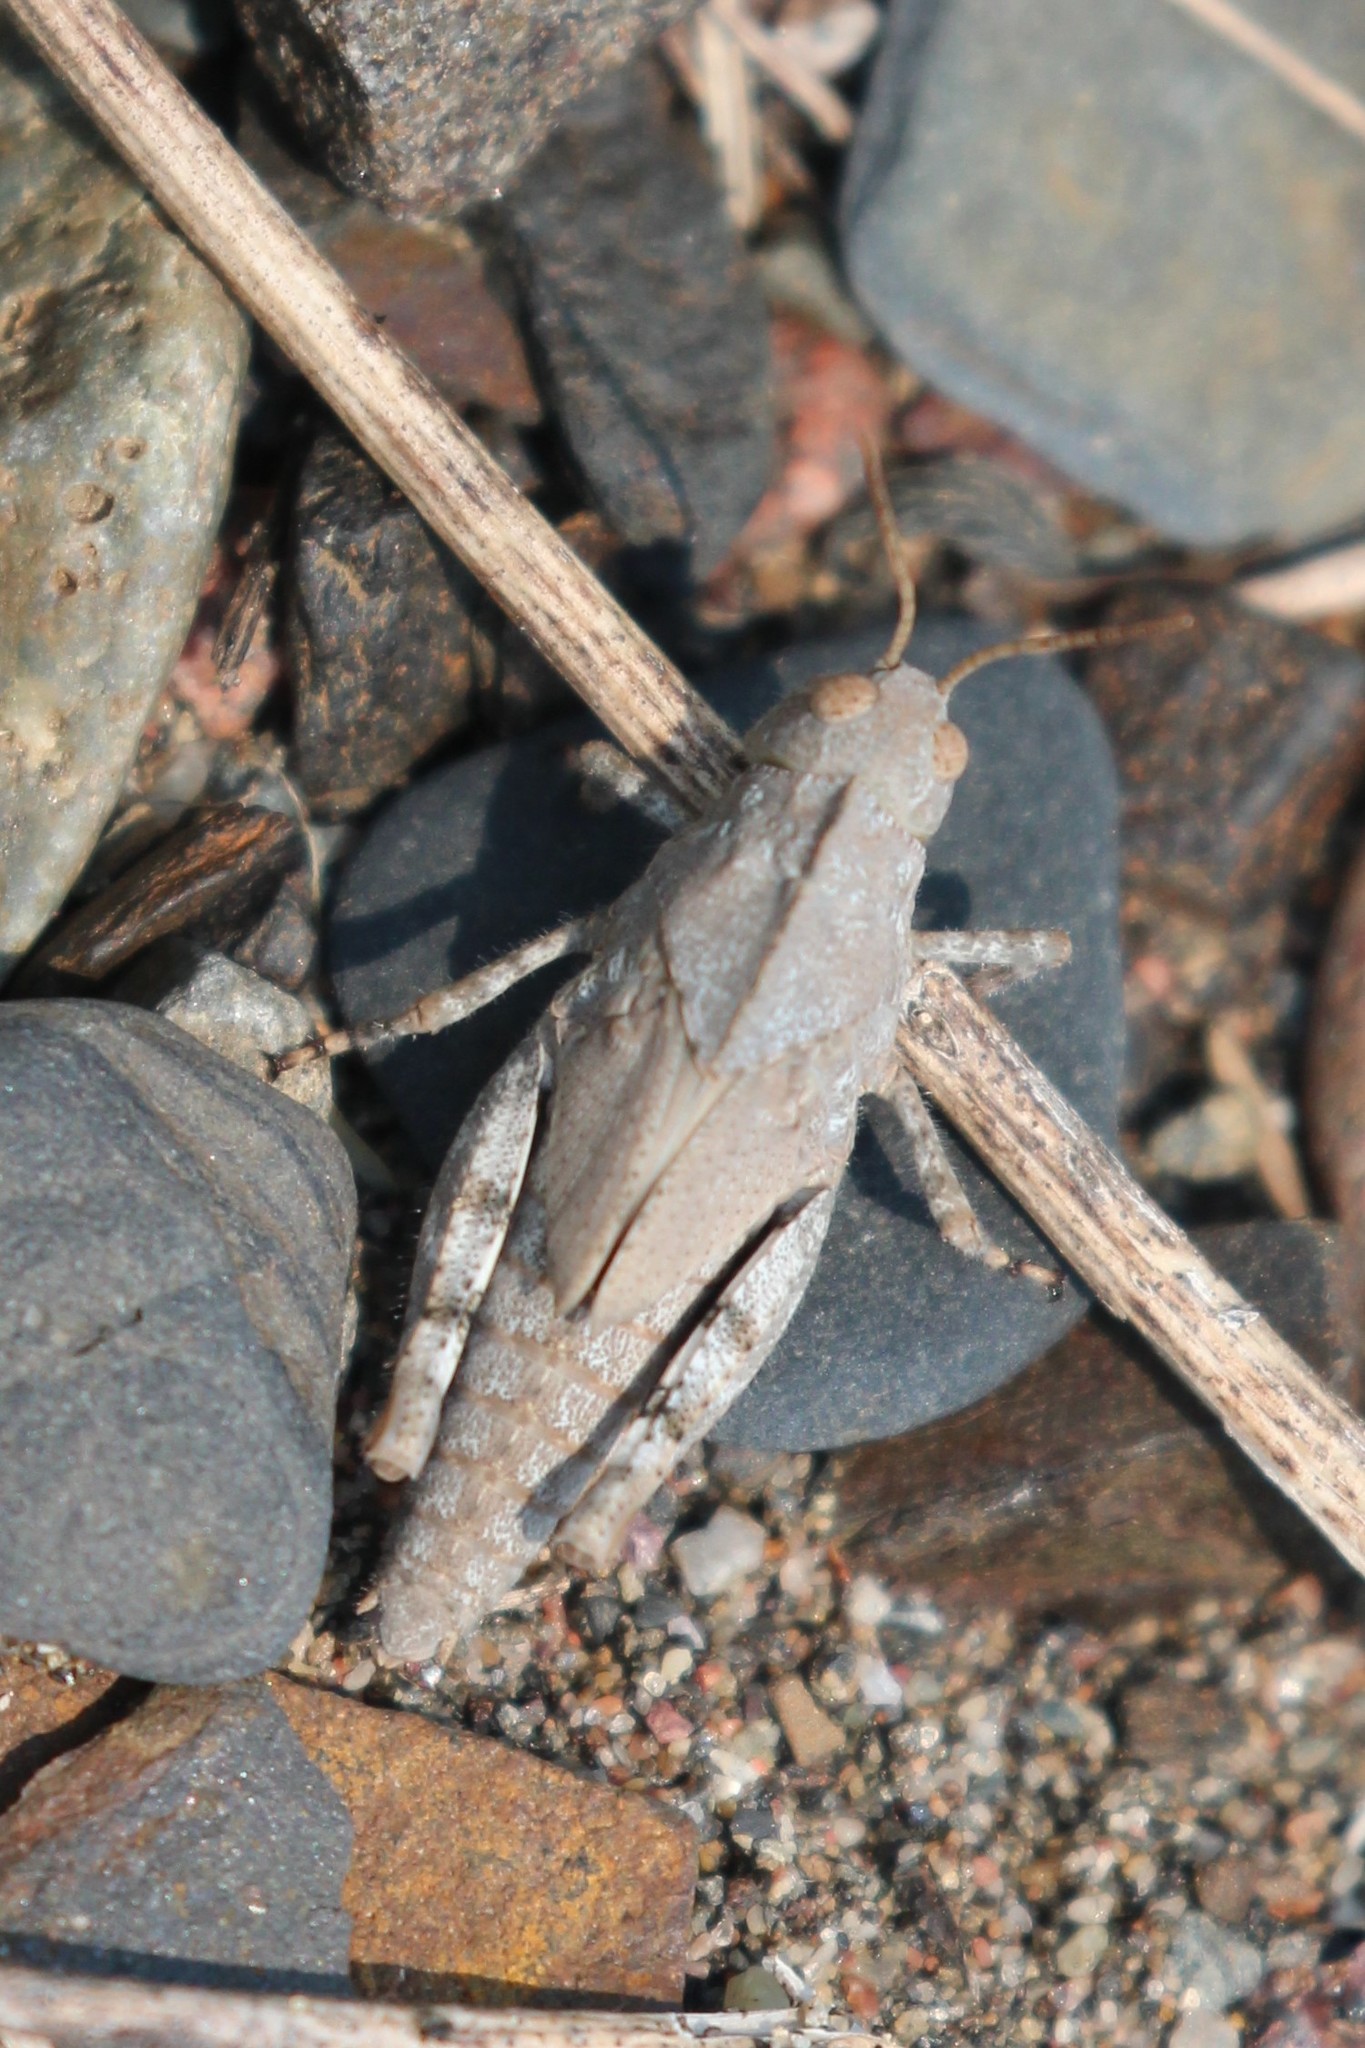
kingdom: Animalia
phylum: Arthropoda
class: Insecta
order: Orthoptera
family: Acrididae
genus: Dissosteira
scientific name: Dissosteira carolina
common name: Carolina grasshopper
